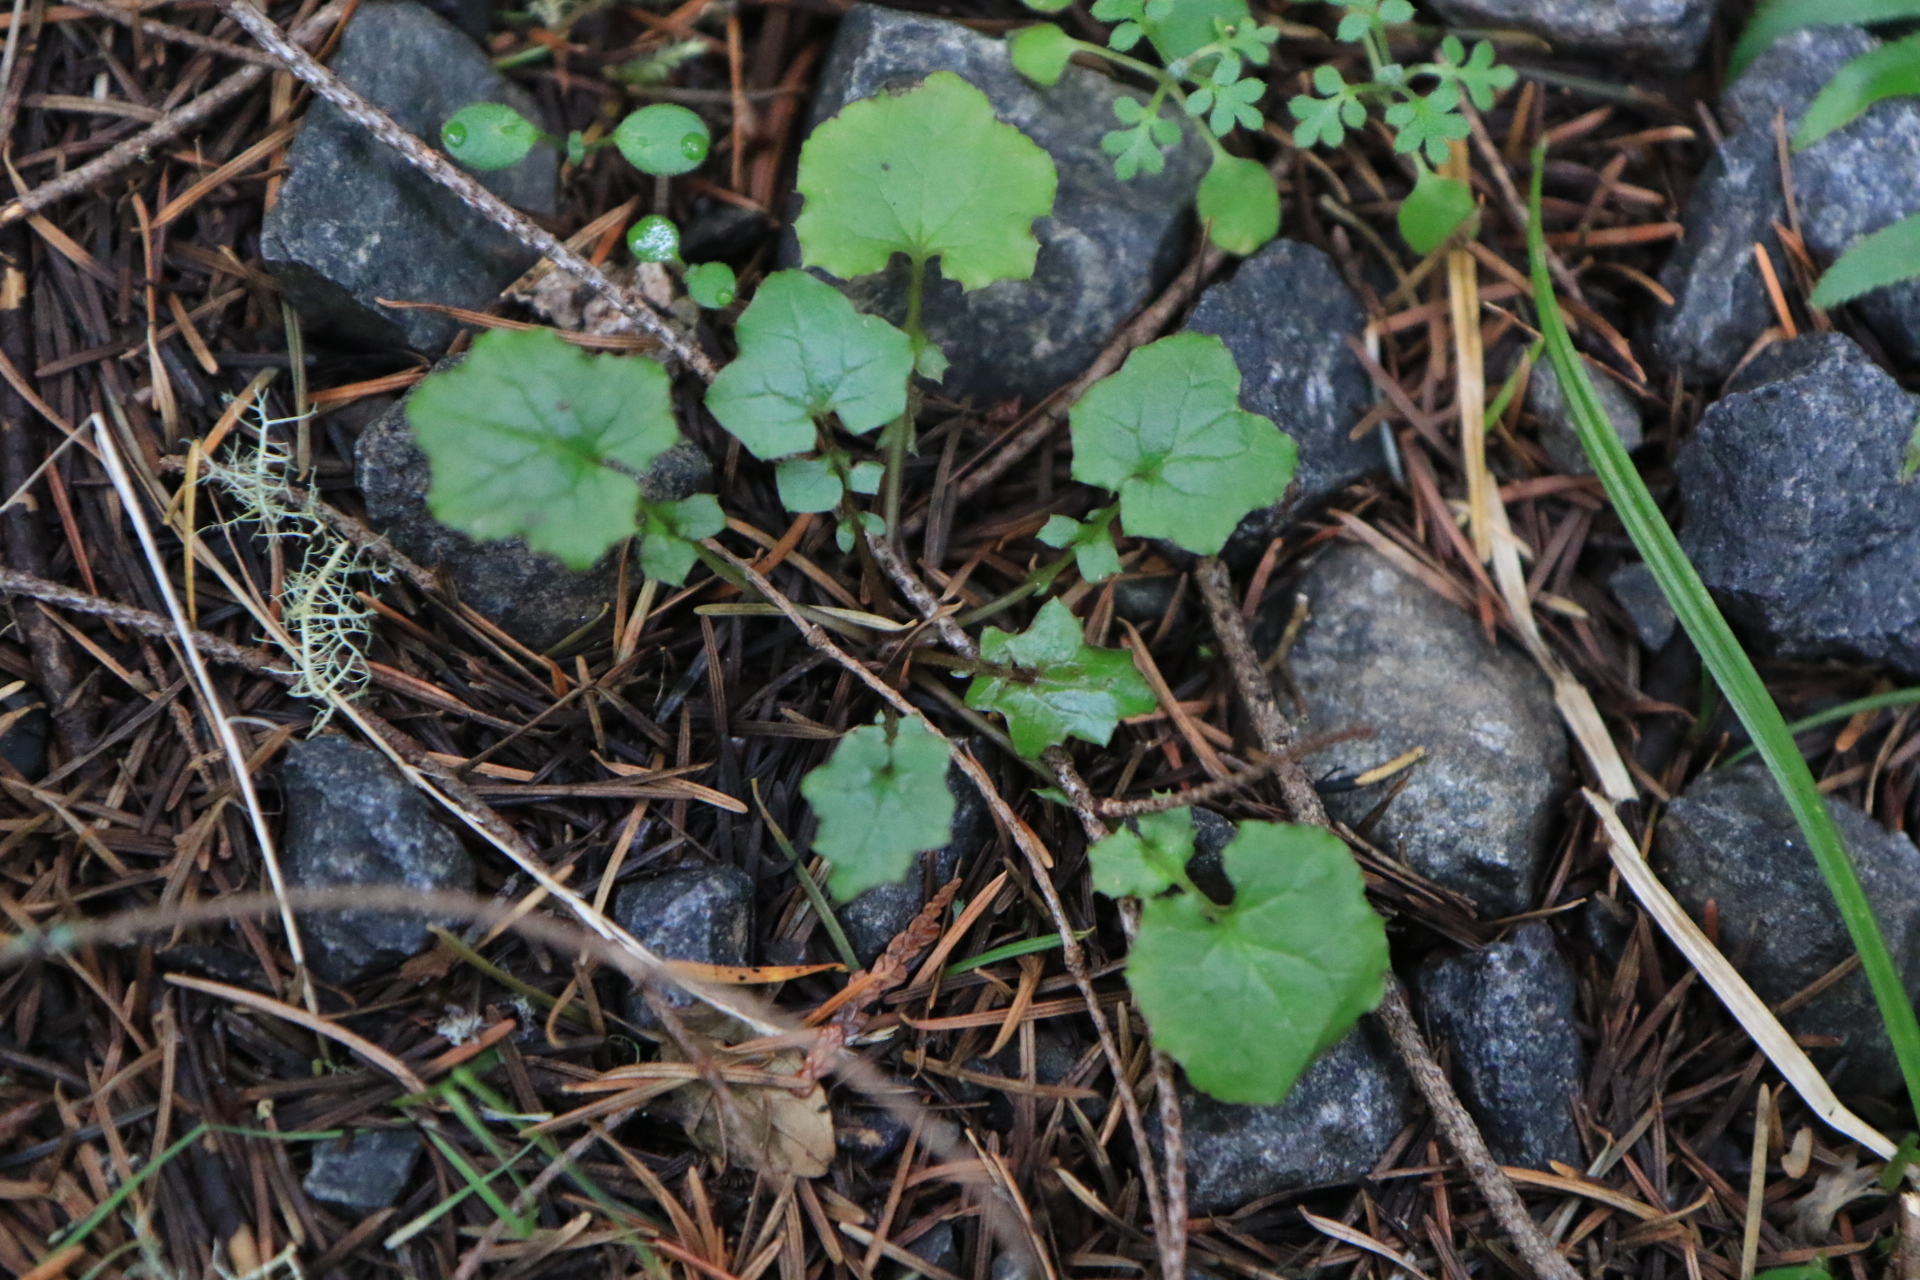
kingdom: Plantae
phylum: Tracheophyta
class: Magnoliopsida
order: Asterales
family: Asteraceae
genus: Mycelis
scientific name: Mycelis muralis
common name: Wall lettuce
